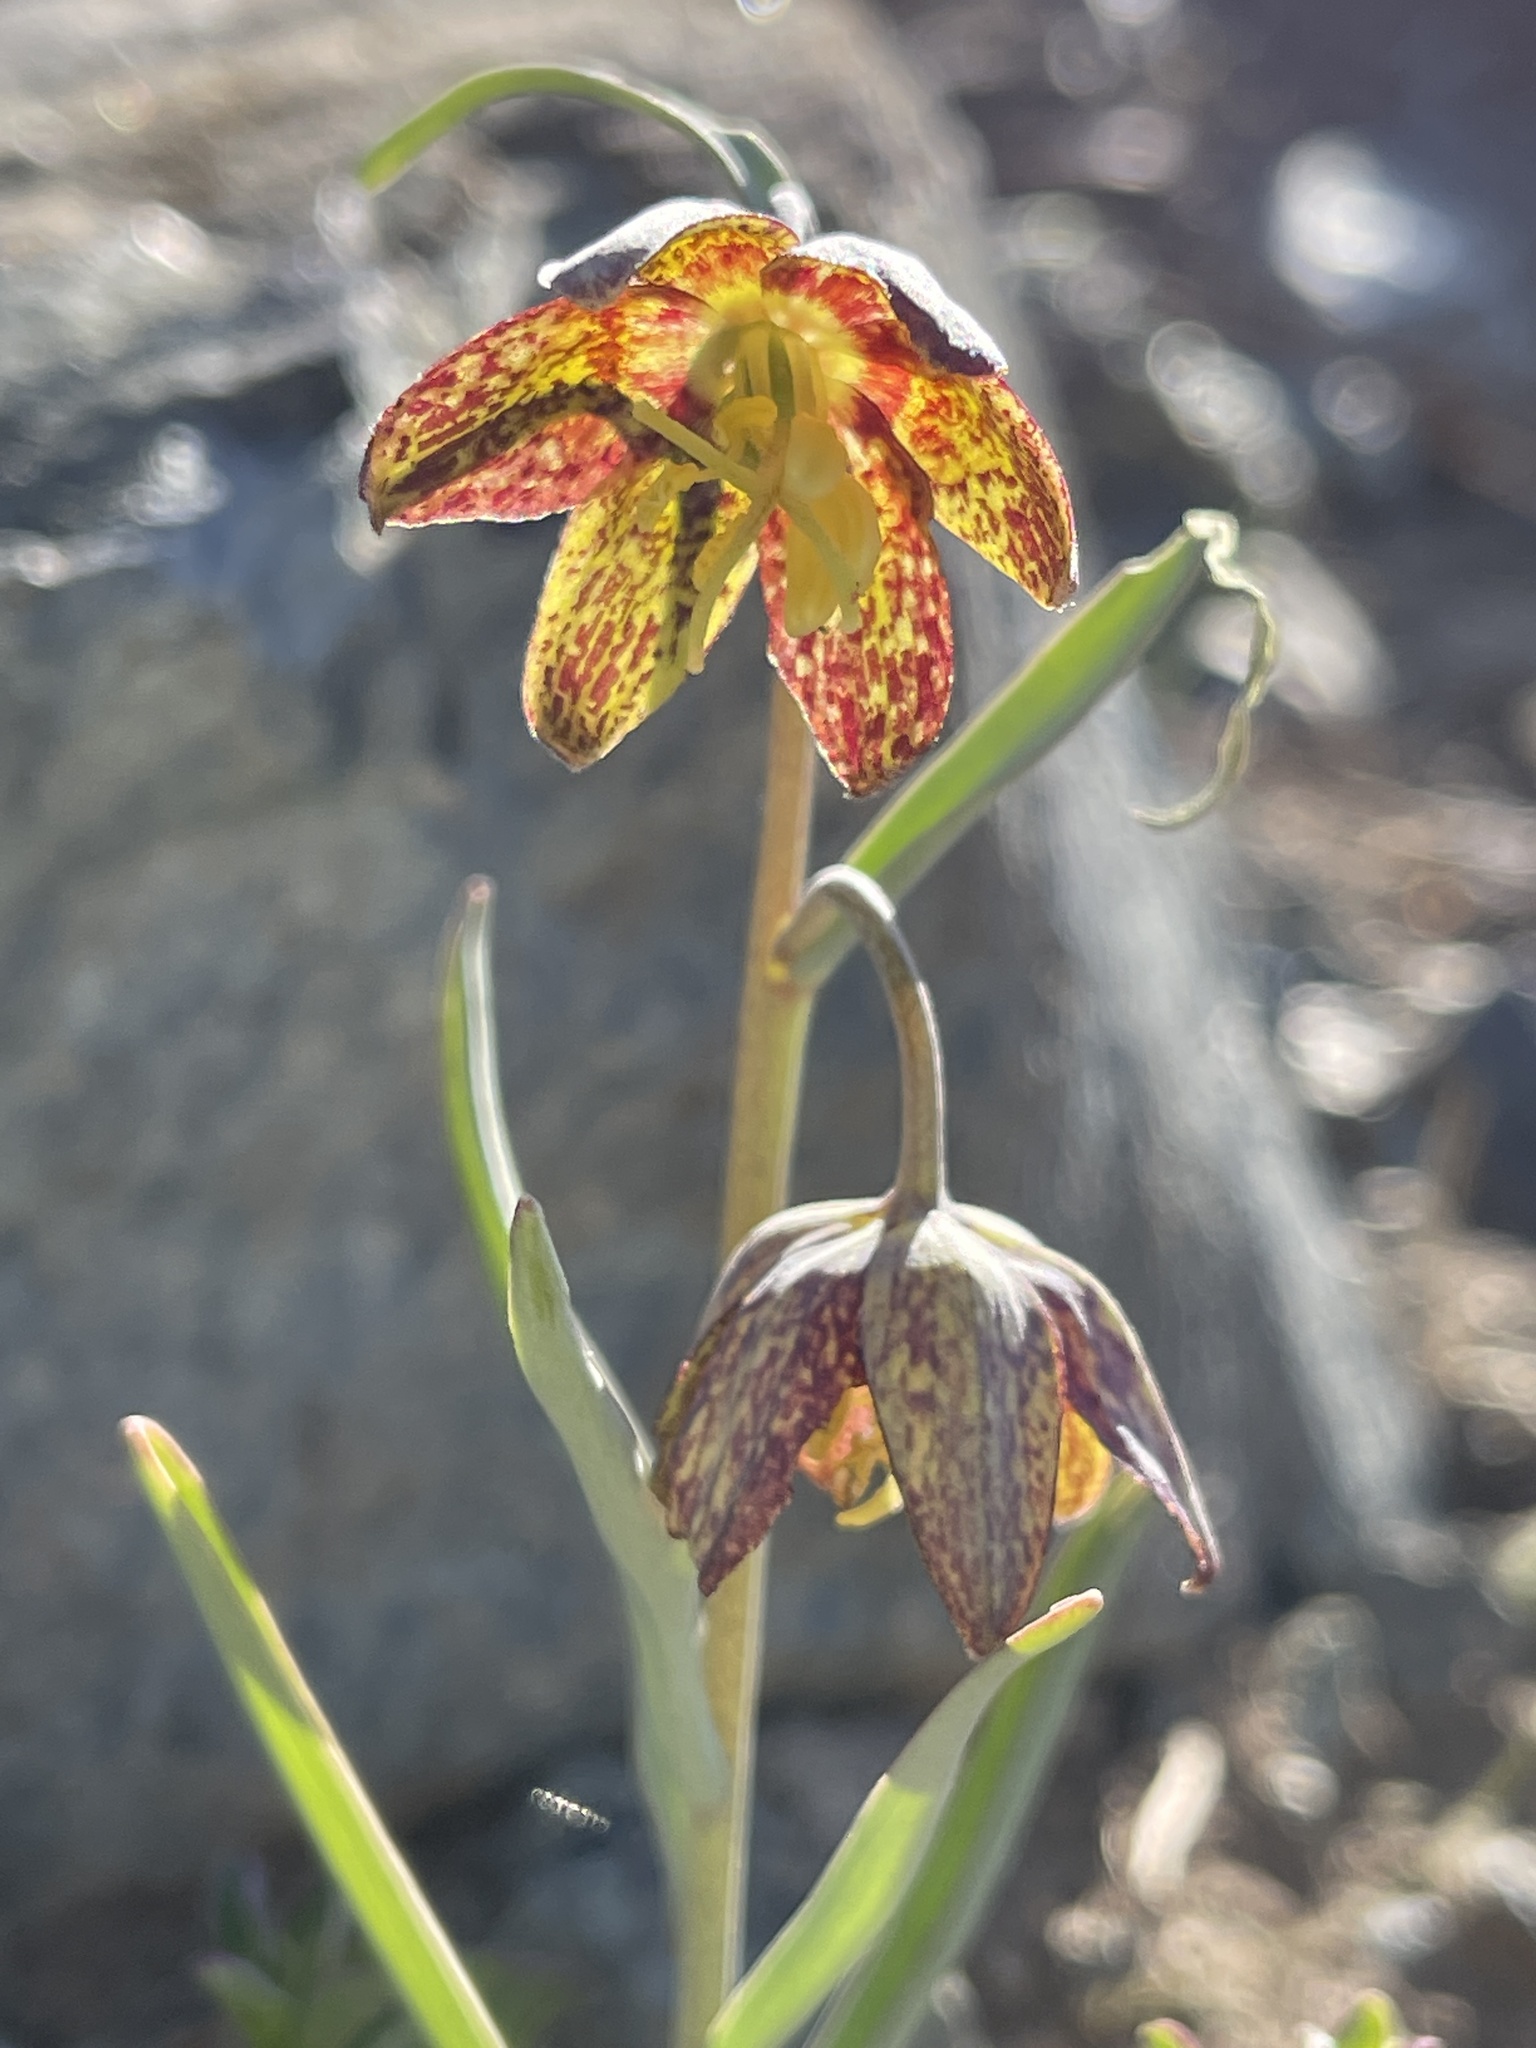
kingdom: Plantae
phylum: Tracheophyta
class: Liliopsida
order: Liliales
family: Liliaceae
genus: Fritillaria
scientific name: Fritillaria atropurpurea
